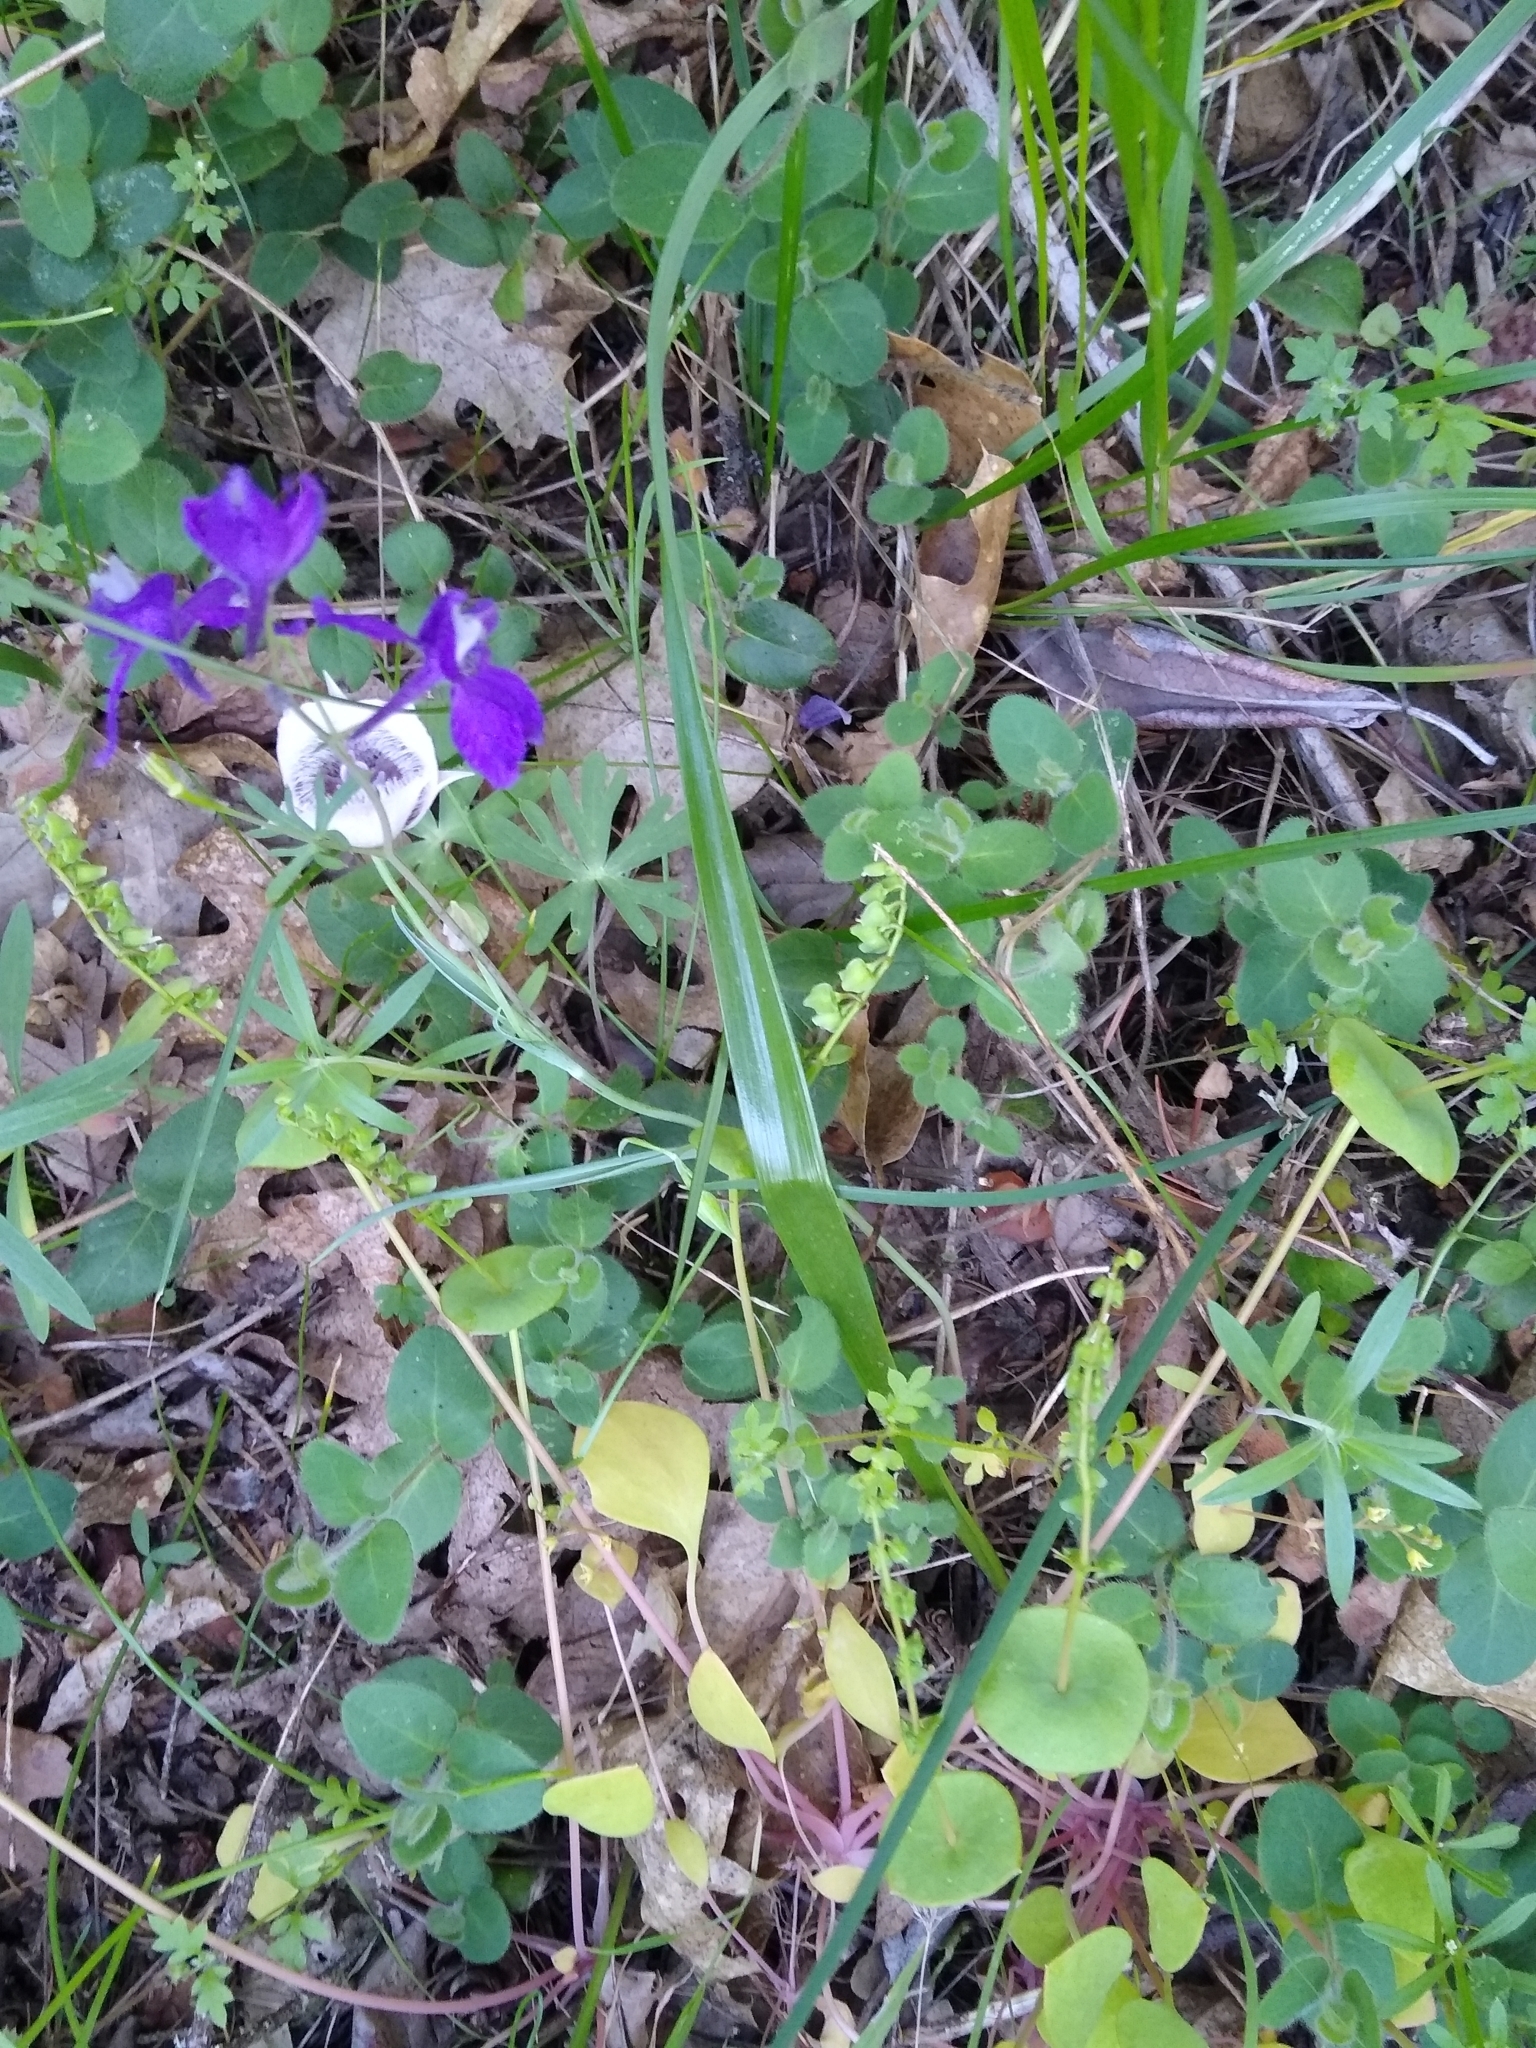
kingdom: Plantae
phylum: Tracheophyta
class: Liliopsida
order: Liliales
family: Liliaceae
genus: Calochortus
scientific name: Calochortus tolmiei
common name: Pussy-ears
